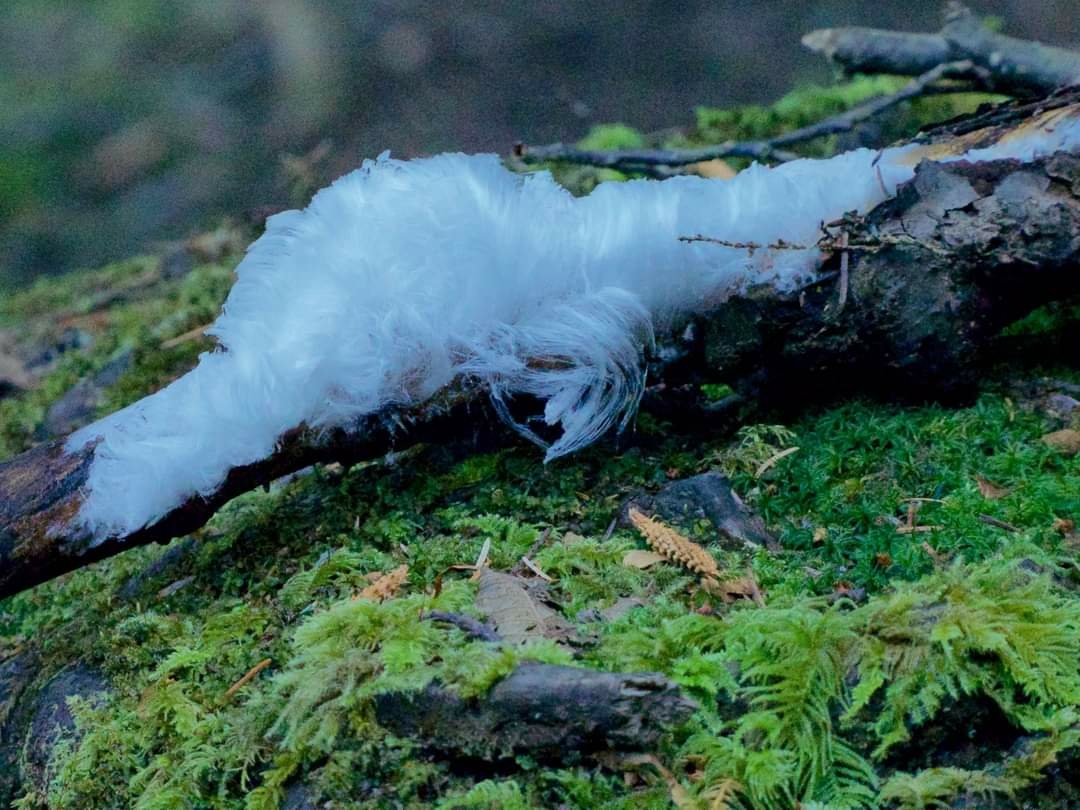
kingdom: Fungi
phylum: Basidiomycota
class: Agaricomycetes
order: Auriculariales
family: Auriculariaceae
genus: Exidiopsis
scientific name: Exidiopsis effusa
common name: Hair ice crust
